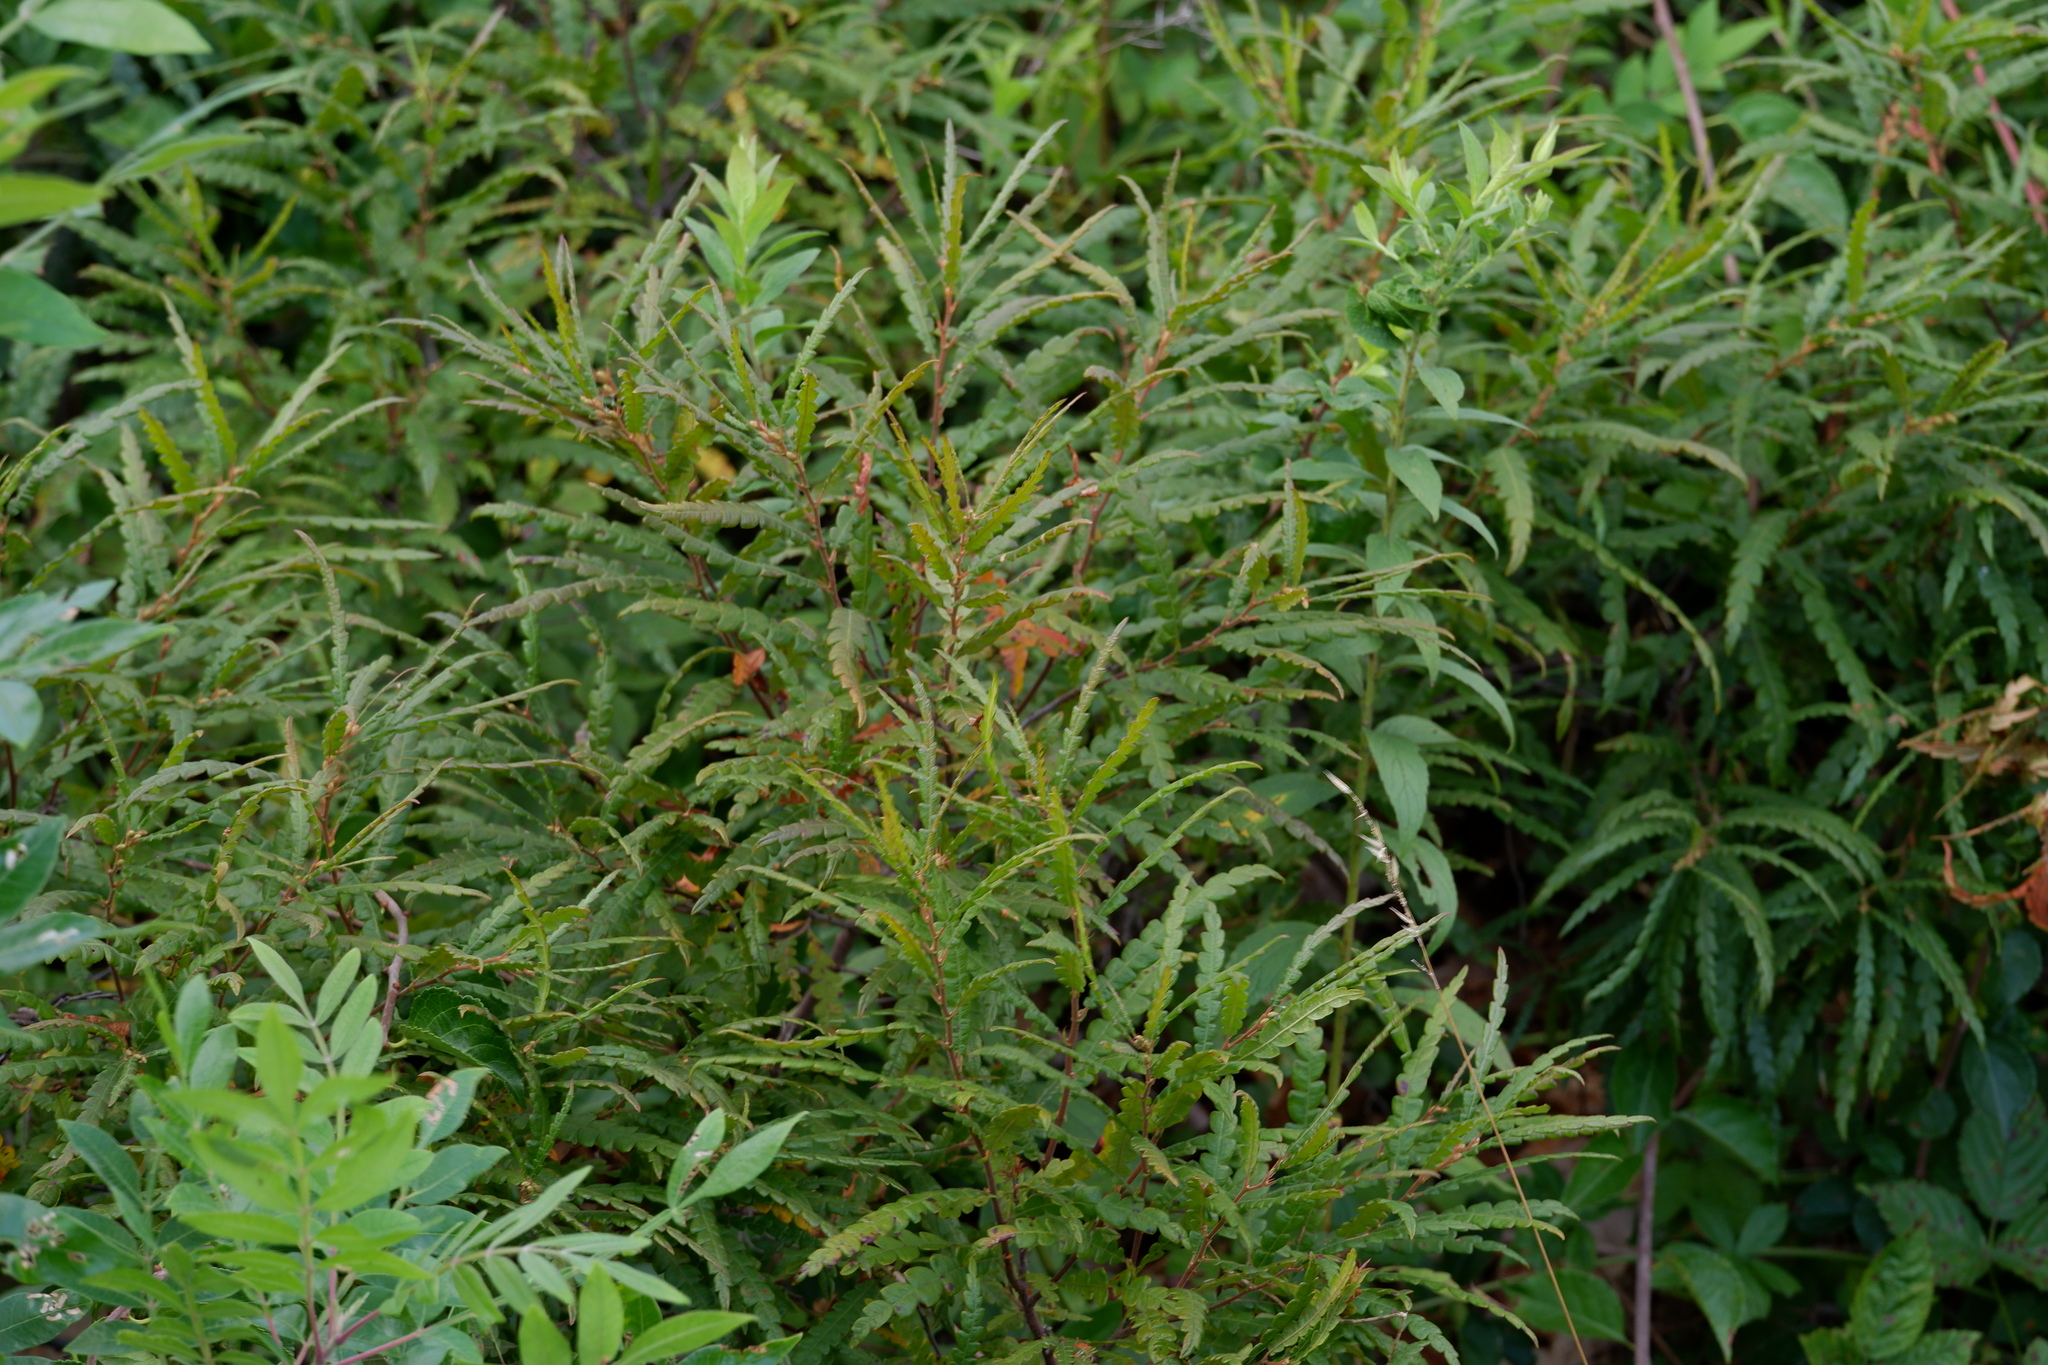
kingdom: Plantae
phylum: Tracheophyta
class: Magnoliopsida
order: Fagales
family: Myricaceae
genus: Comptonia
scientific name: Comptonia peregrina
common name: Sweet-fern
